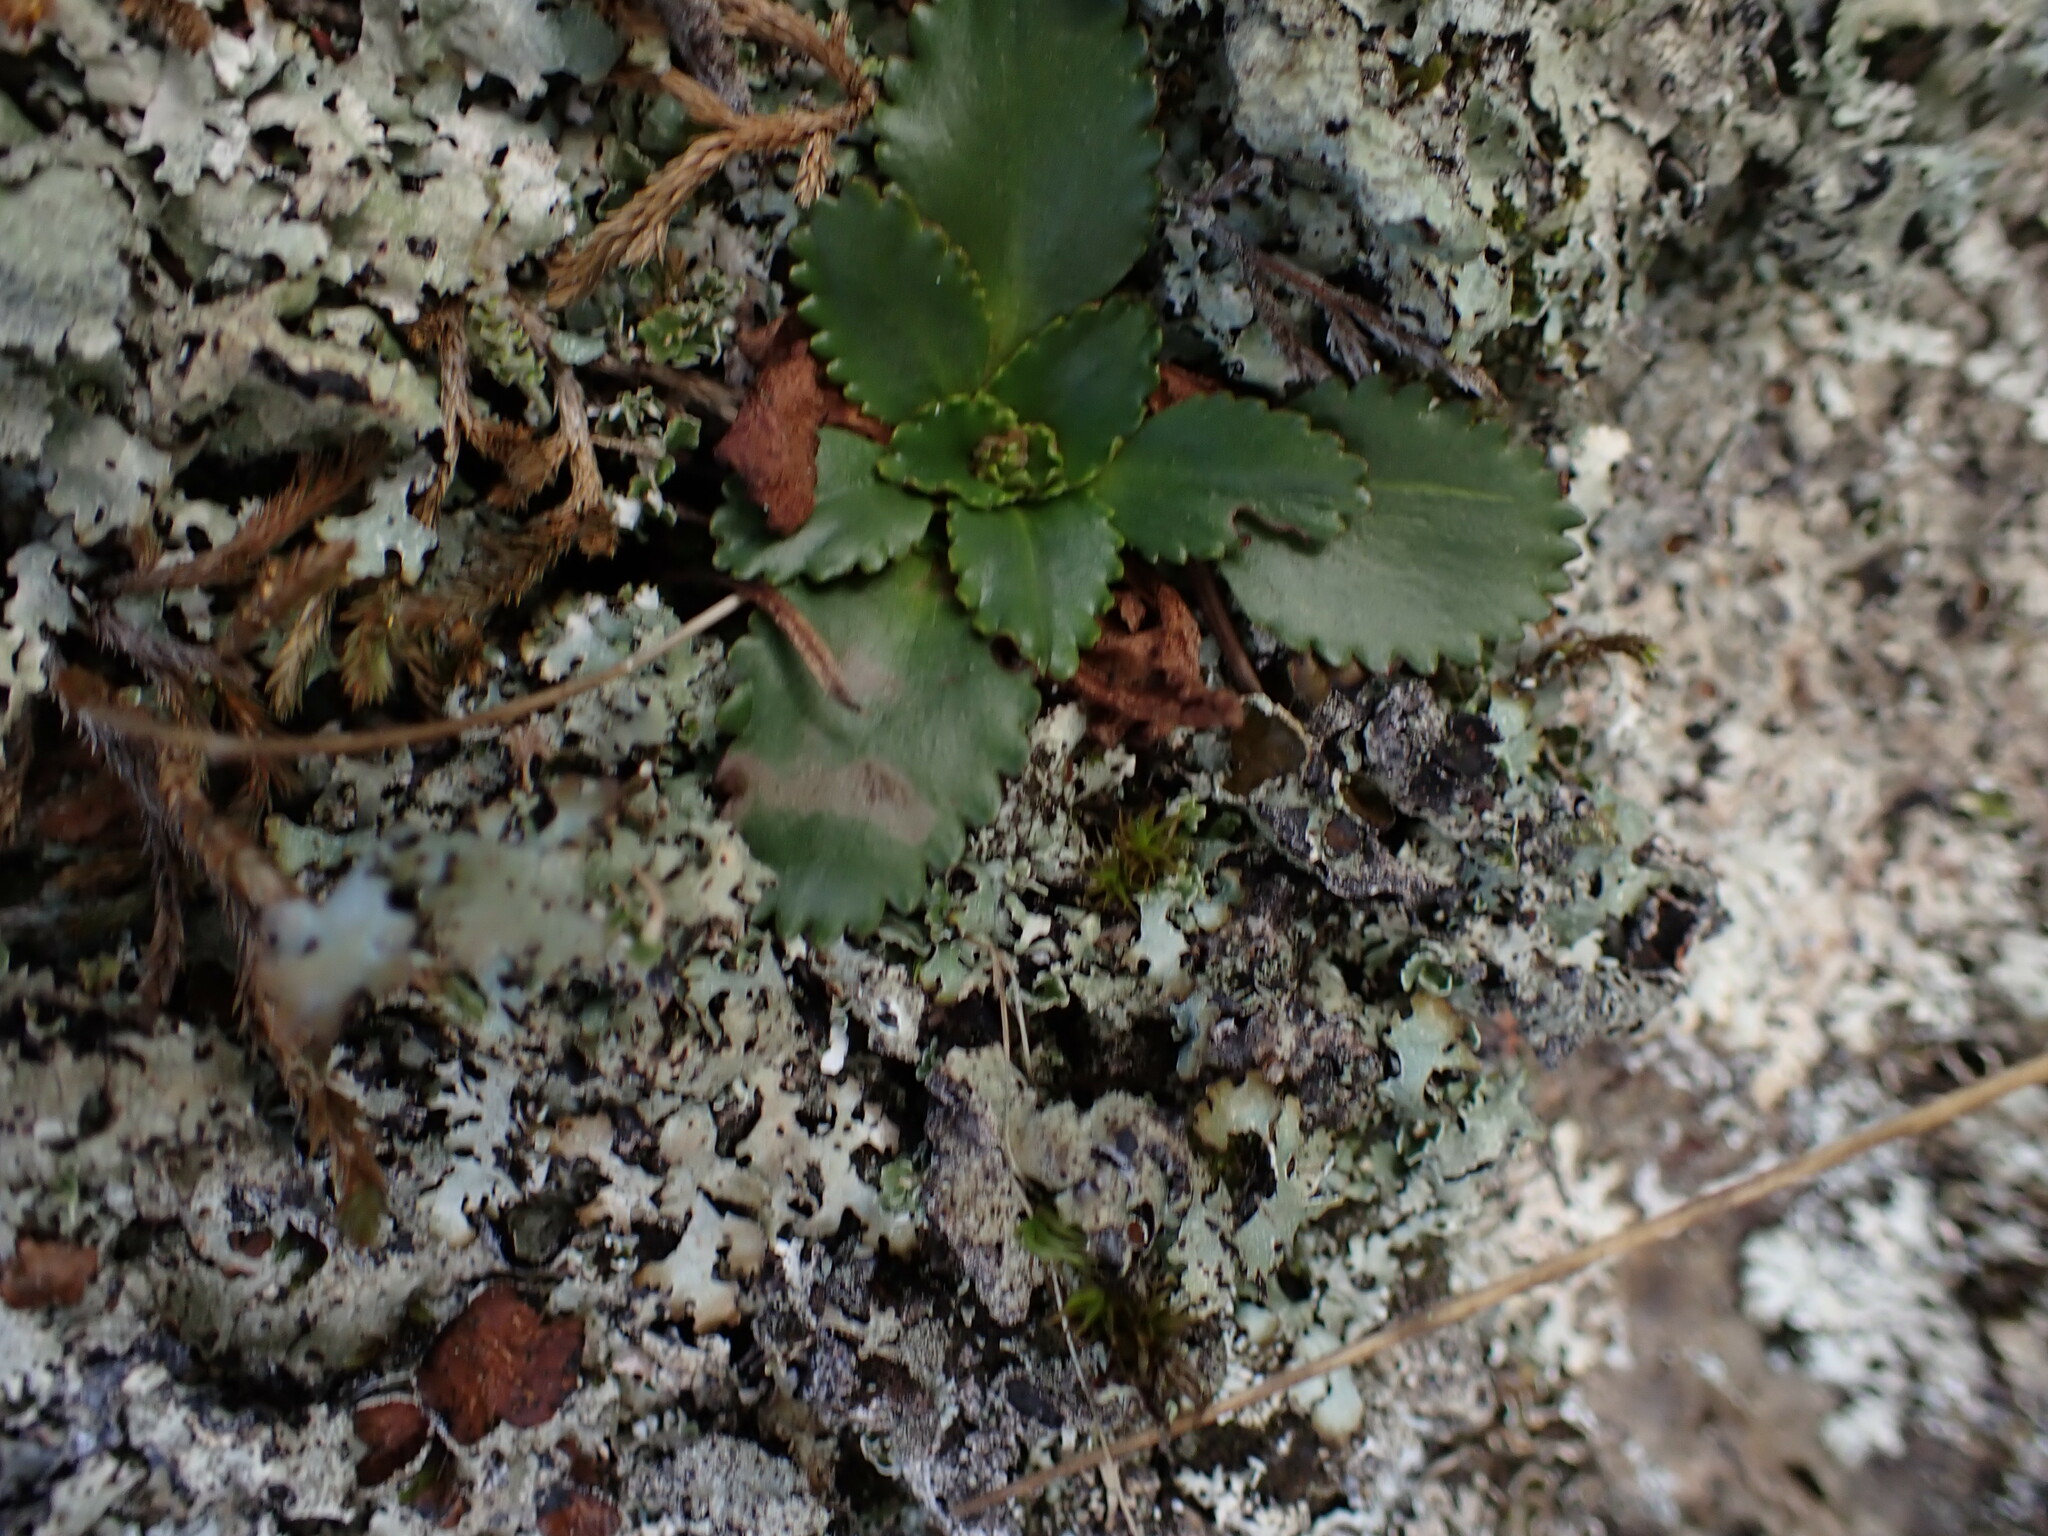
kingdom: Plantae
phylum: Tracheophyta
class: Magnoliopsida
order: Saxifragales
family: Saxifragaceae
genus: Micranthes
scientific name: Micranthes rufidula
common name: Rustyhair saxifrage
